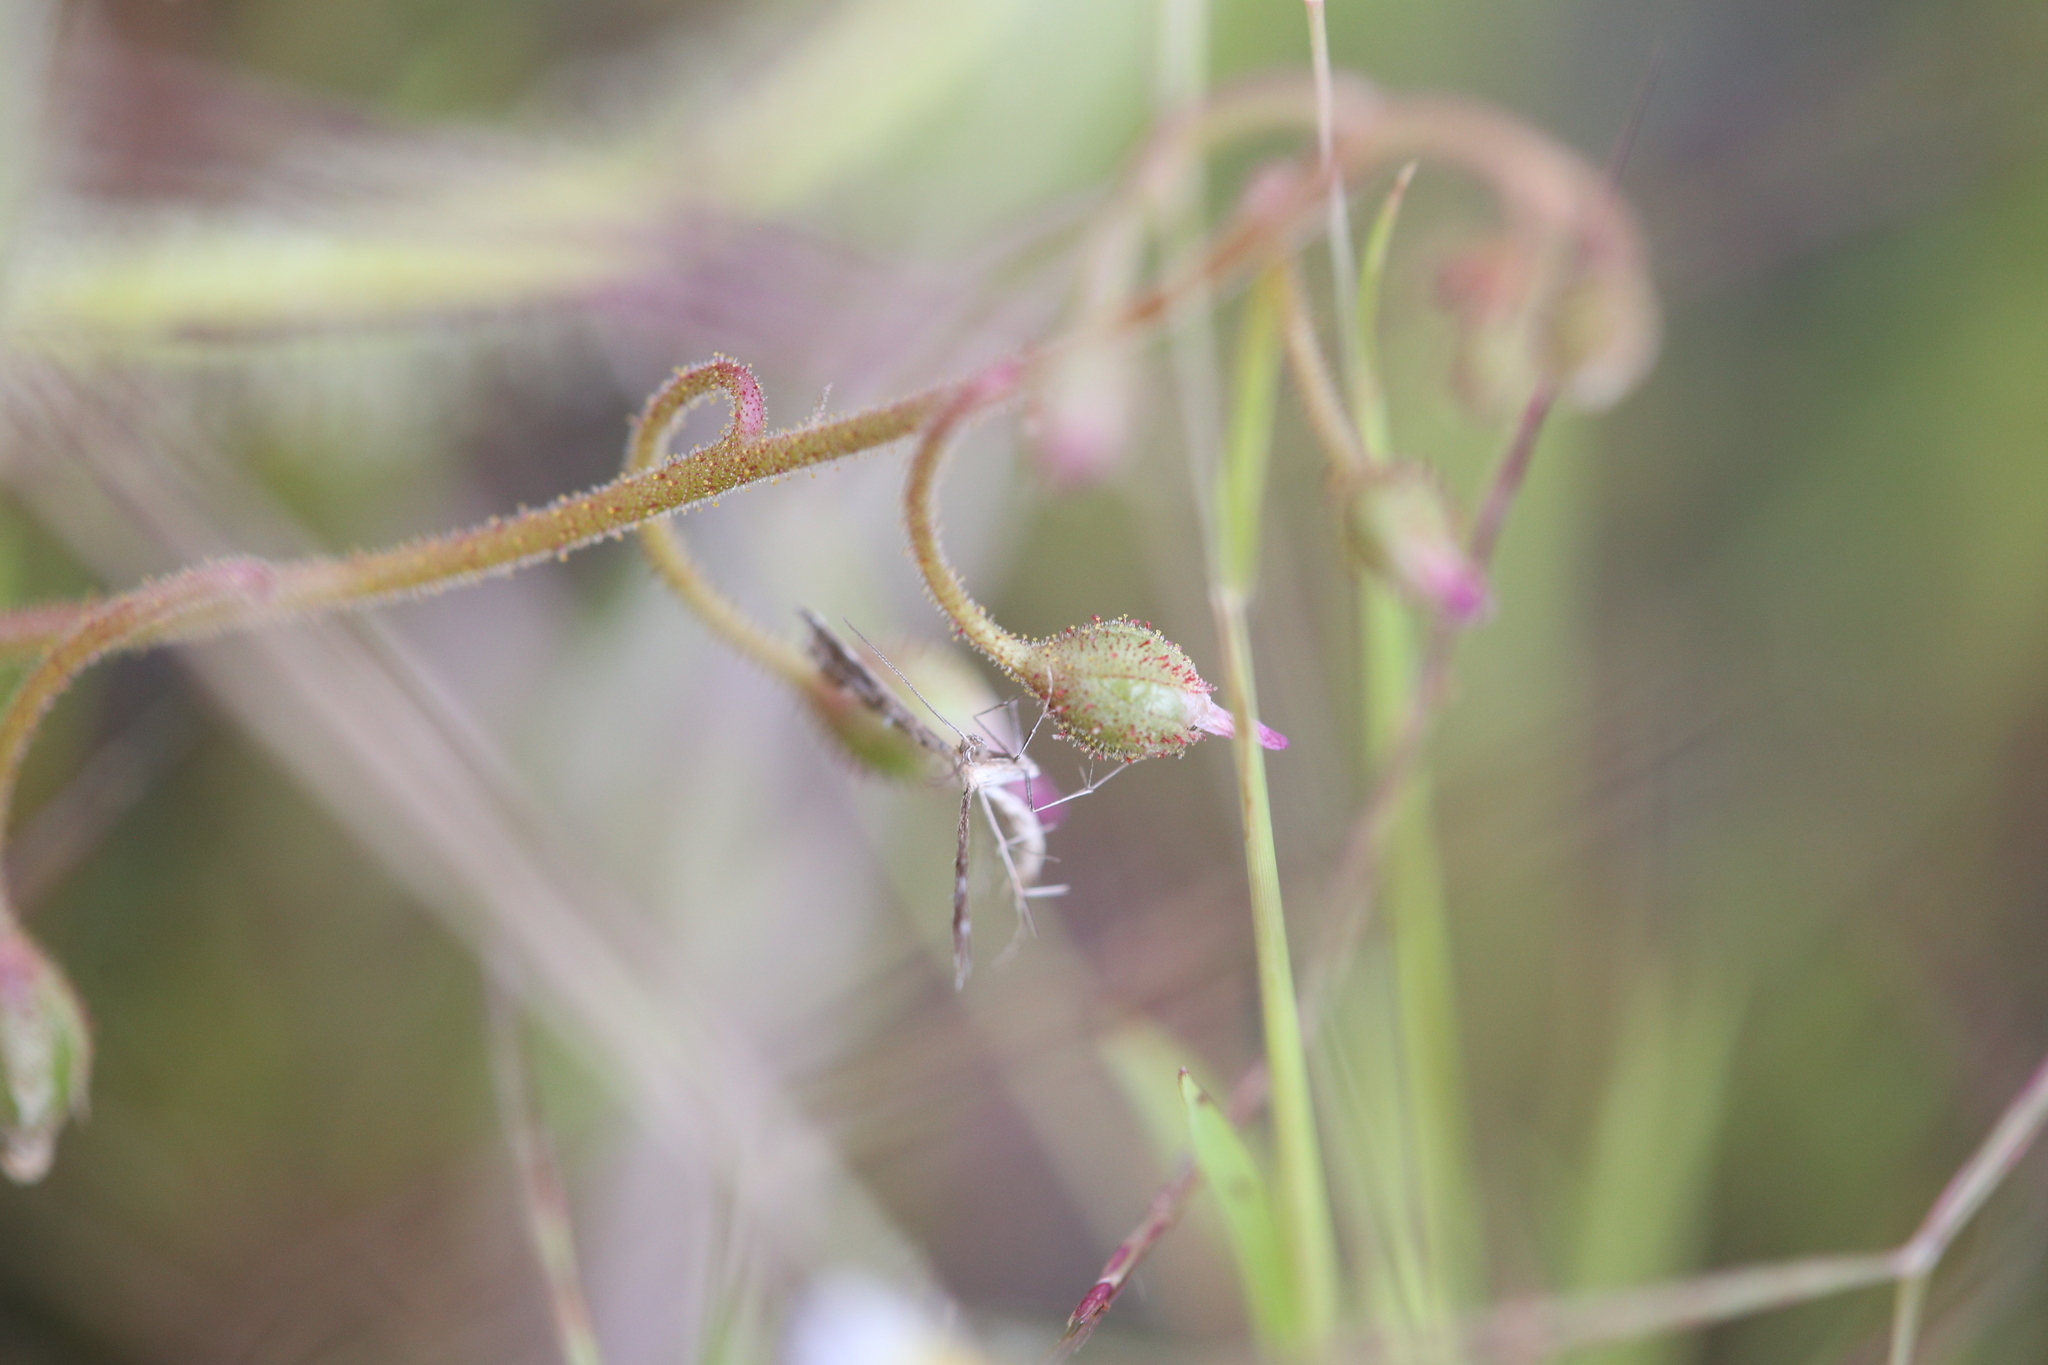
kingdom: Animalia
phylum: Arthropoda
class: Insecta
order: Lepidoptera
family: Pterophoridae
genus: Buckleria
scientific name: Buckleria paludum
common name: Marsh plume
